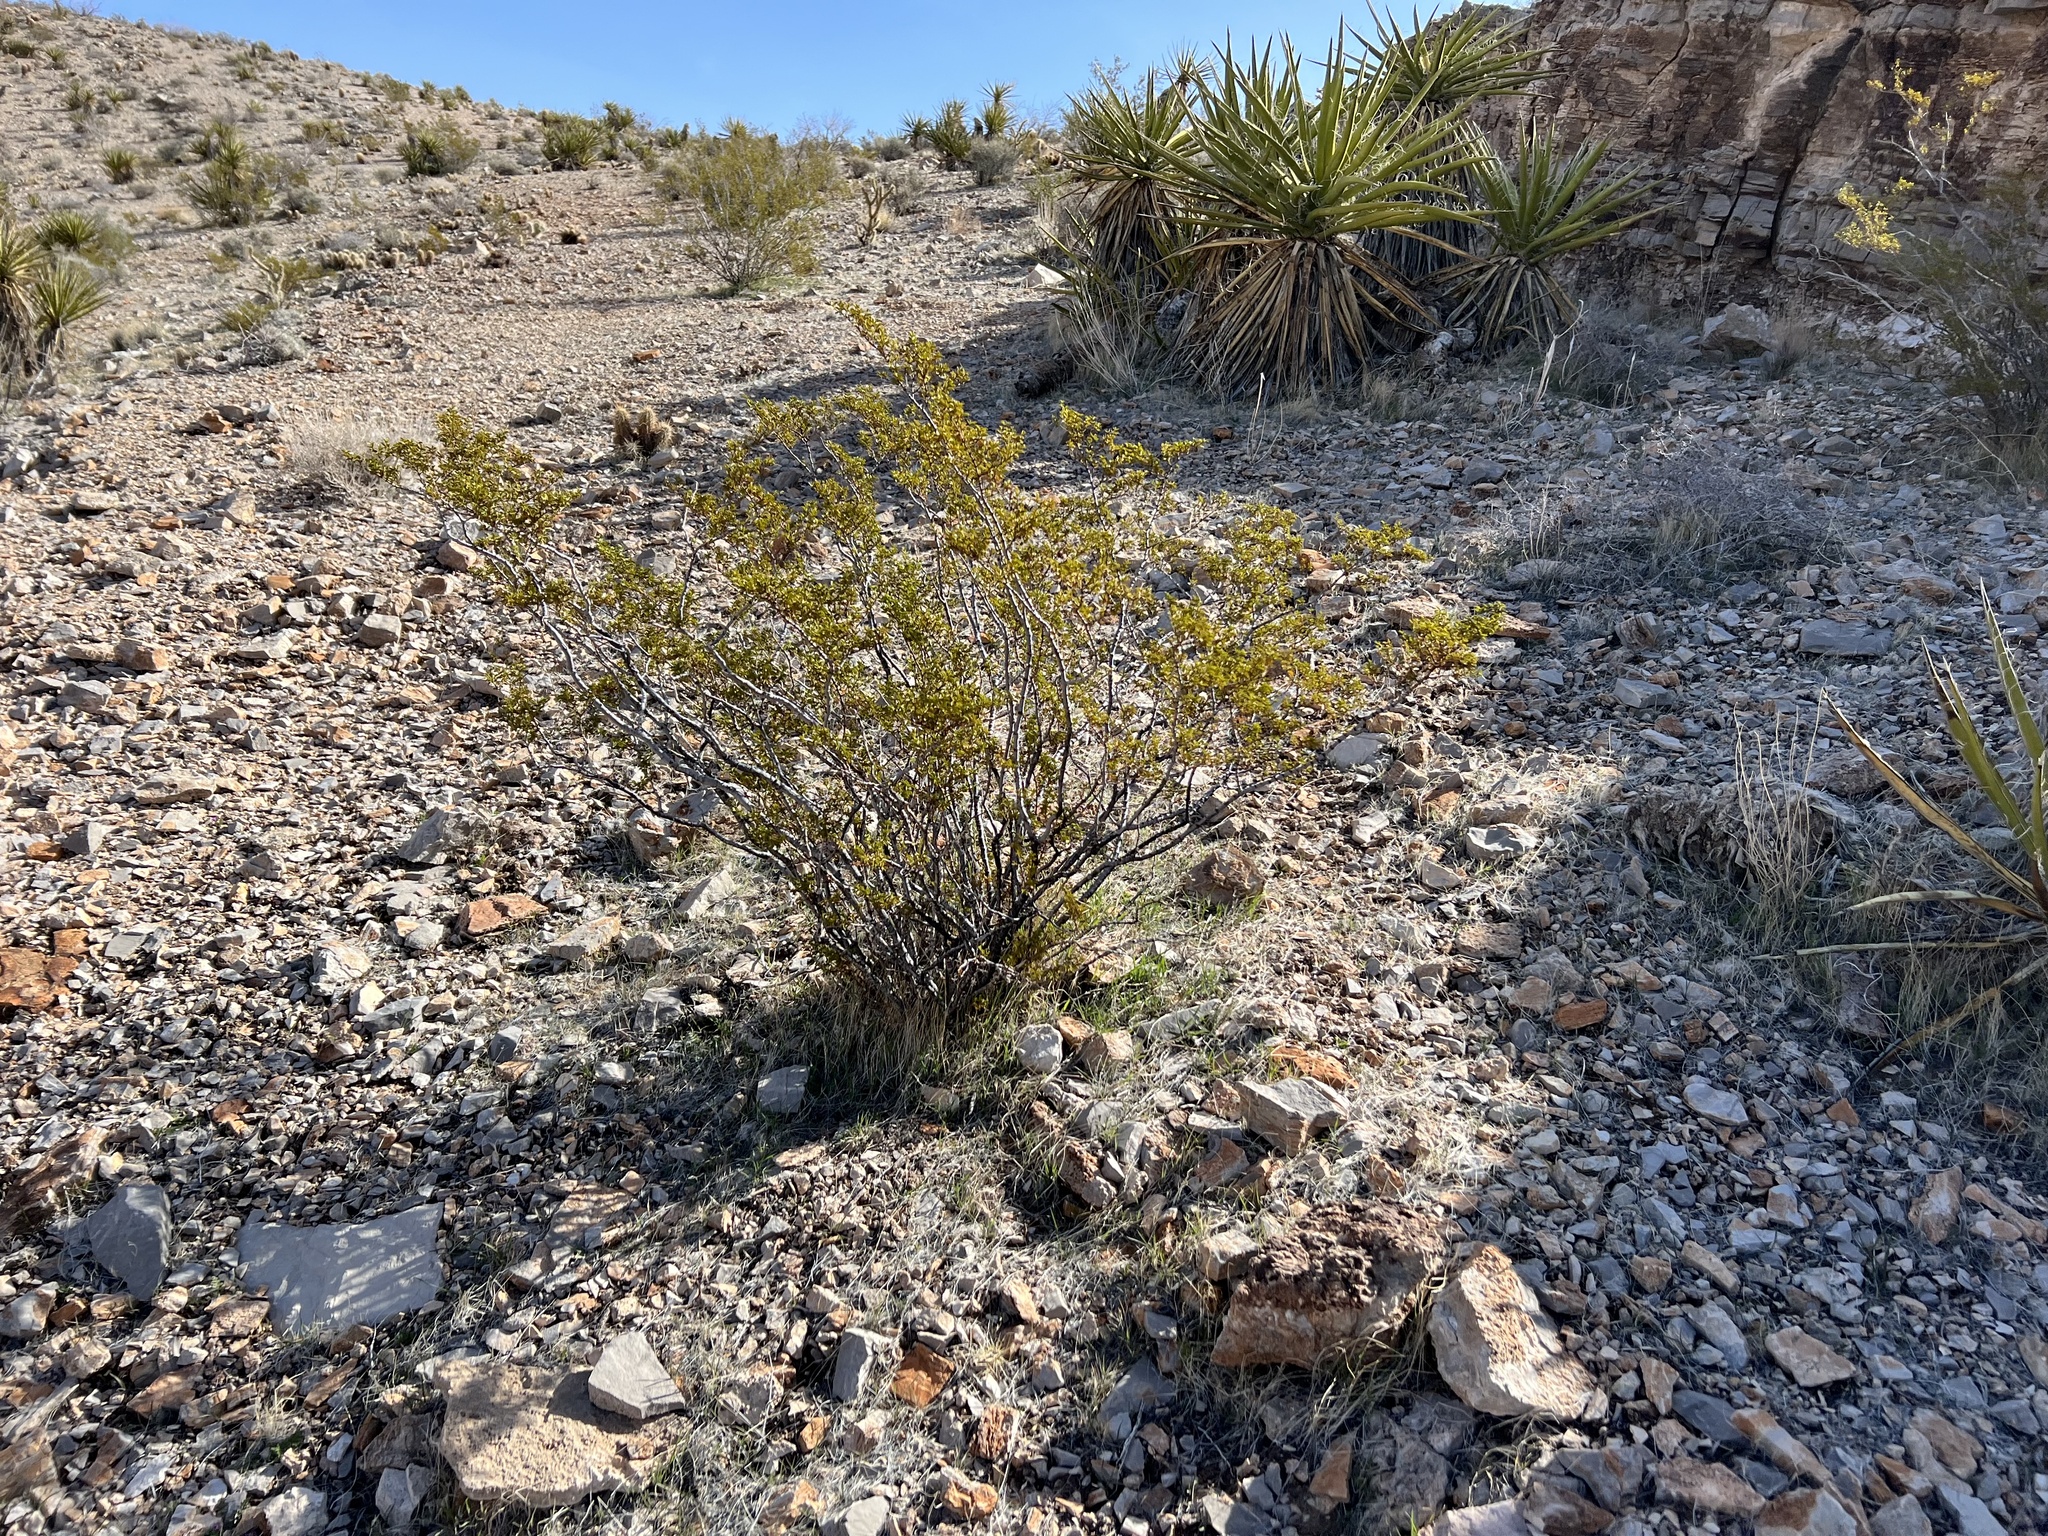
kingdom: Plantae
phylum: Tracheophyta
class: Magnoliopsida
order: Zygophyllales
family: Zygophyllaceae
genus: Larrea
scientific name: Larrea tridentata
